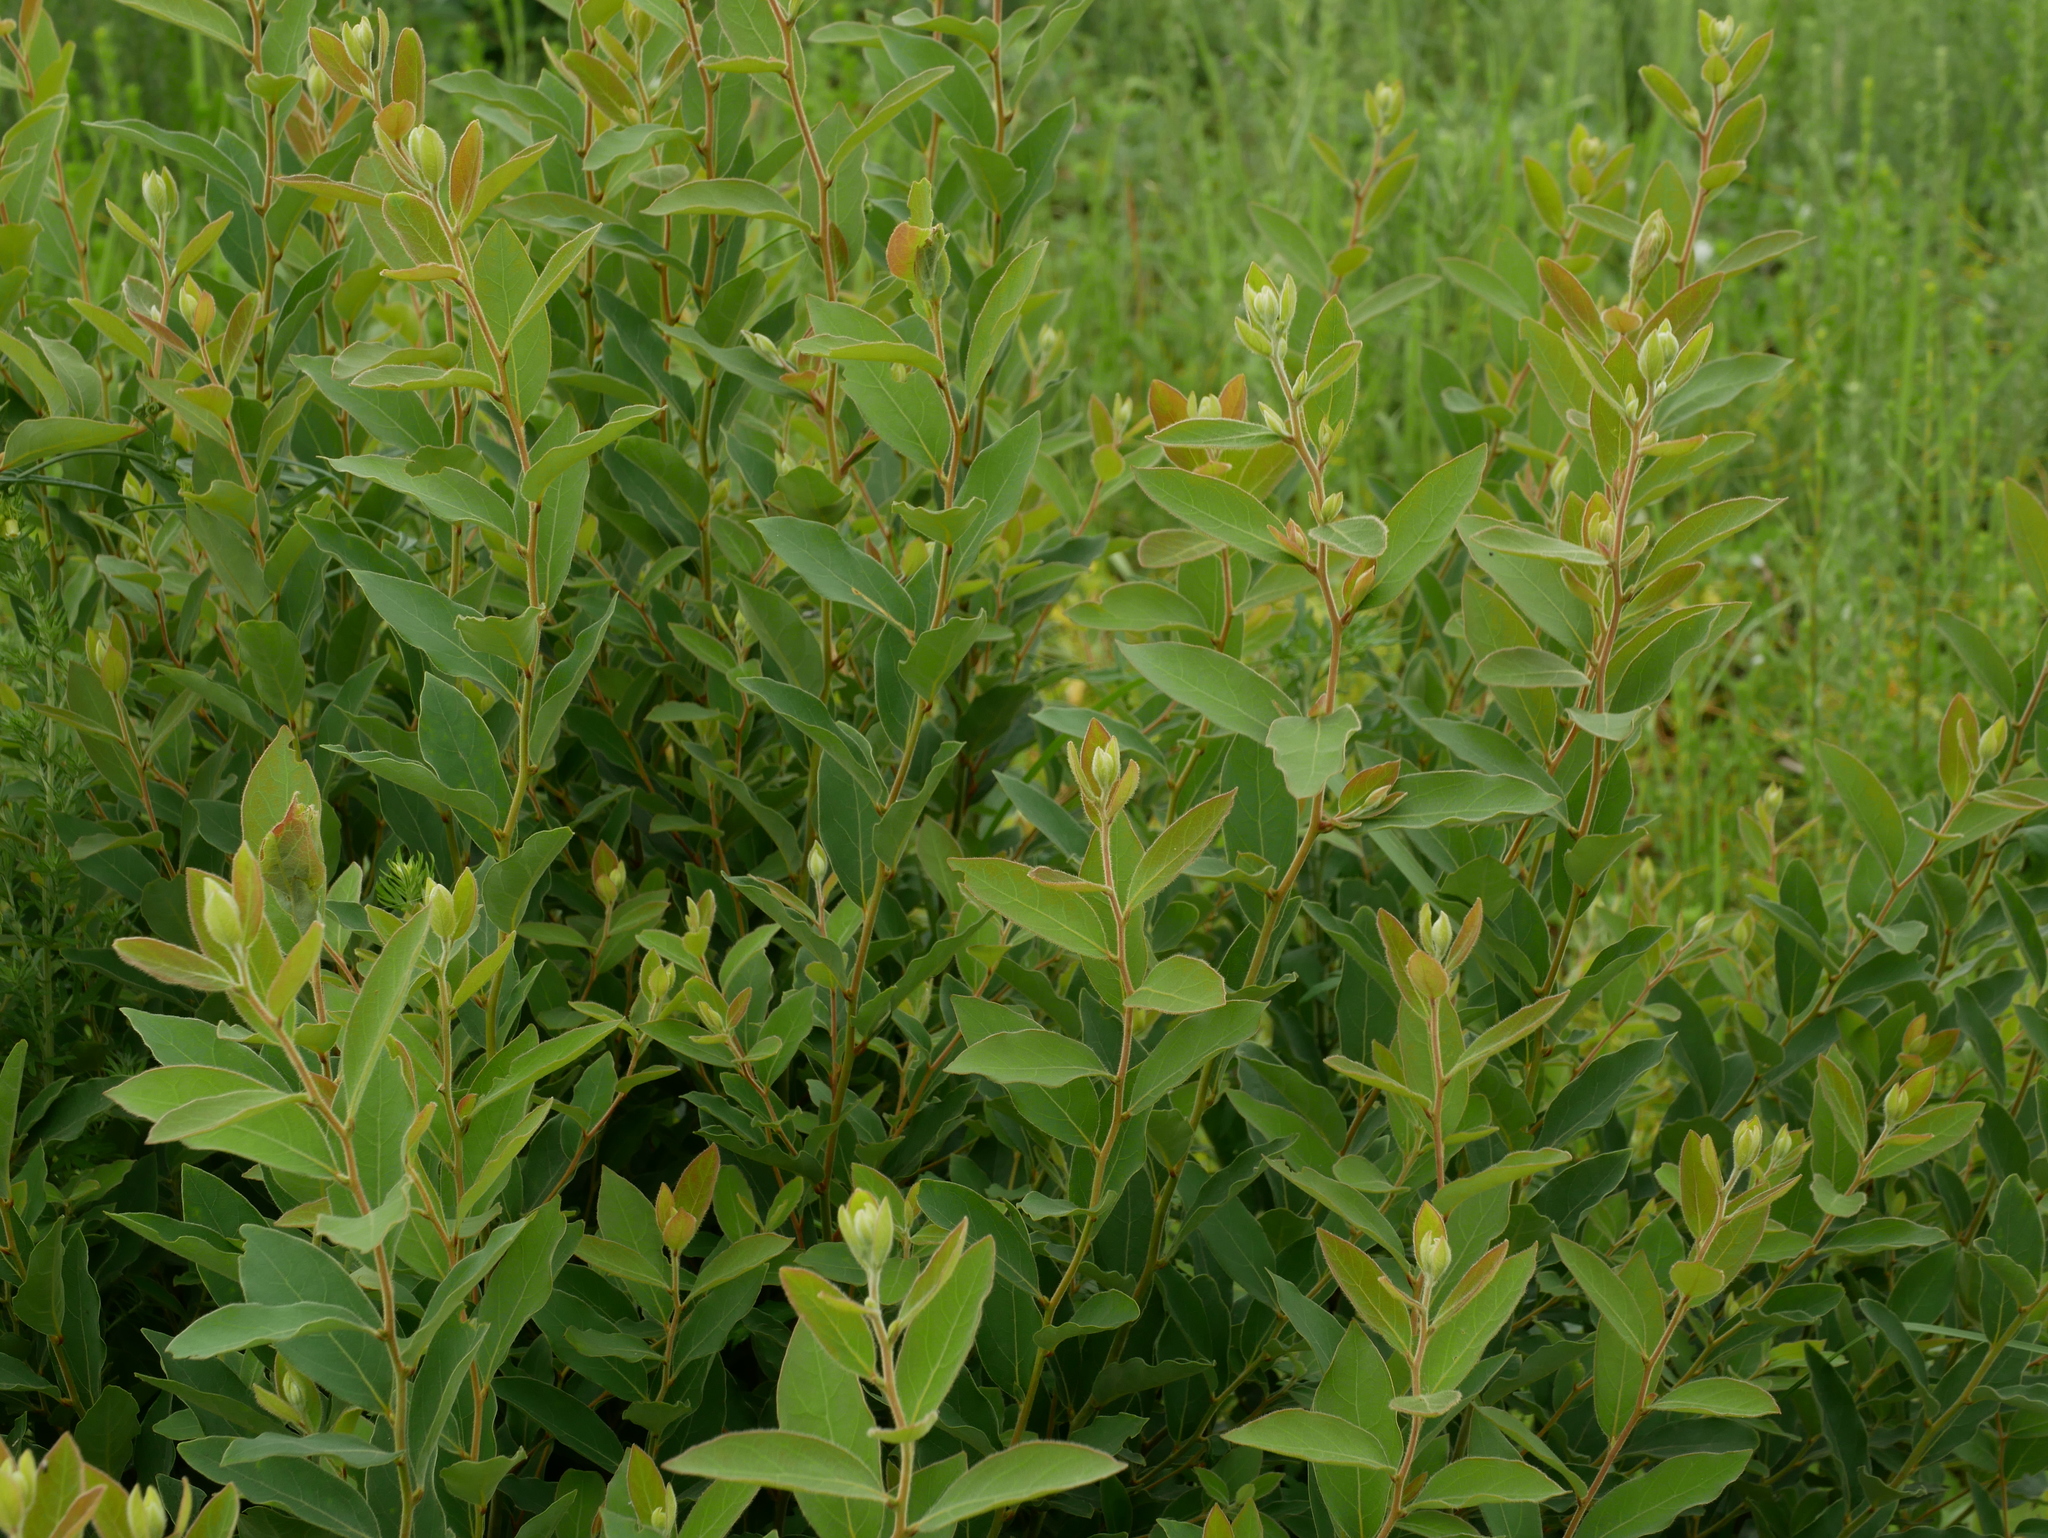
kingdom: Plantae
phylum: Tracheophyta
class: Magnoliopsida
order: Laurales
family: Lauraceae
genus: Lindera
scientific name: Lindera glauca
